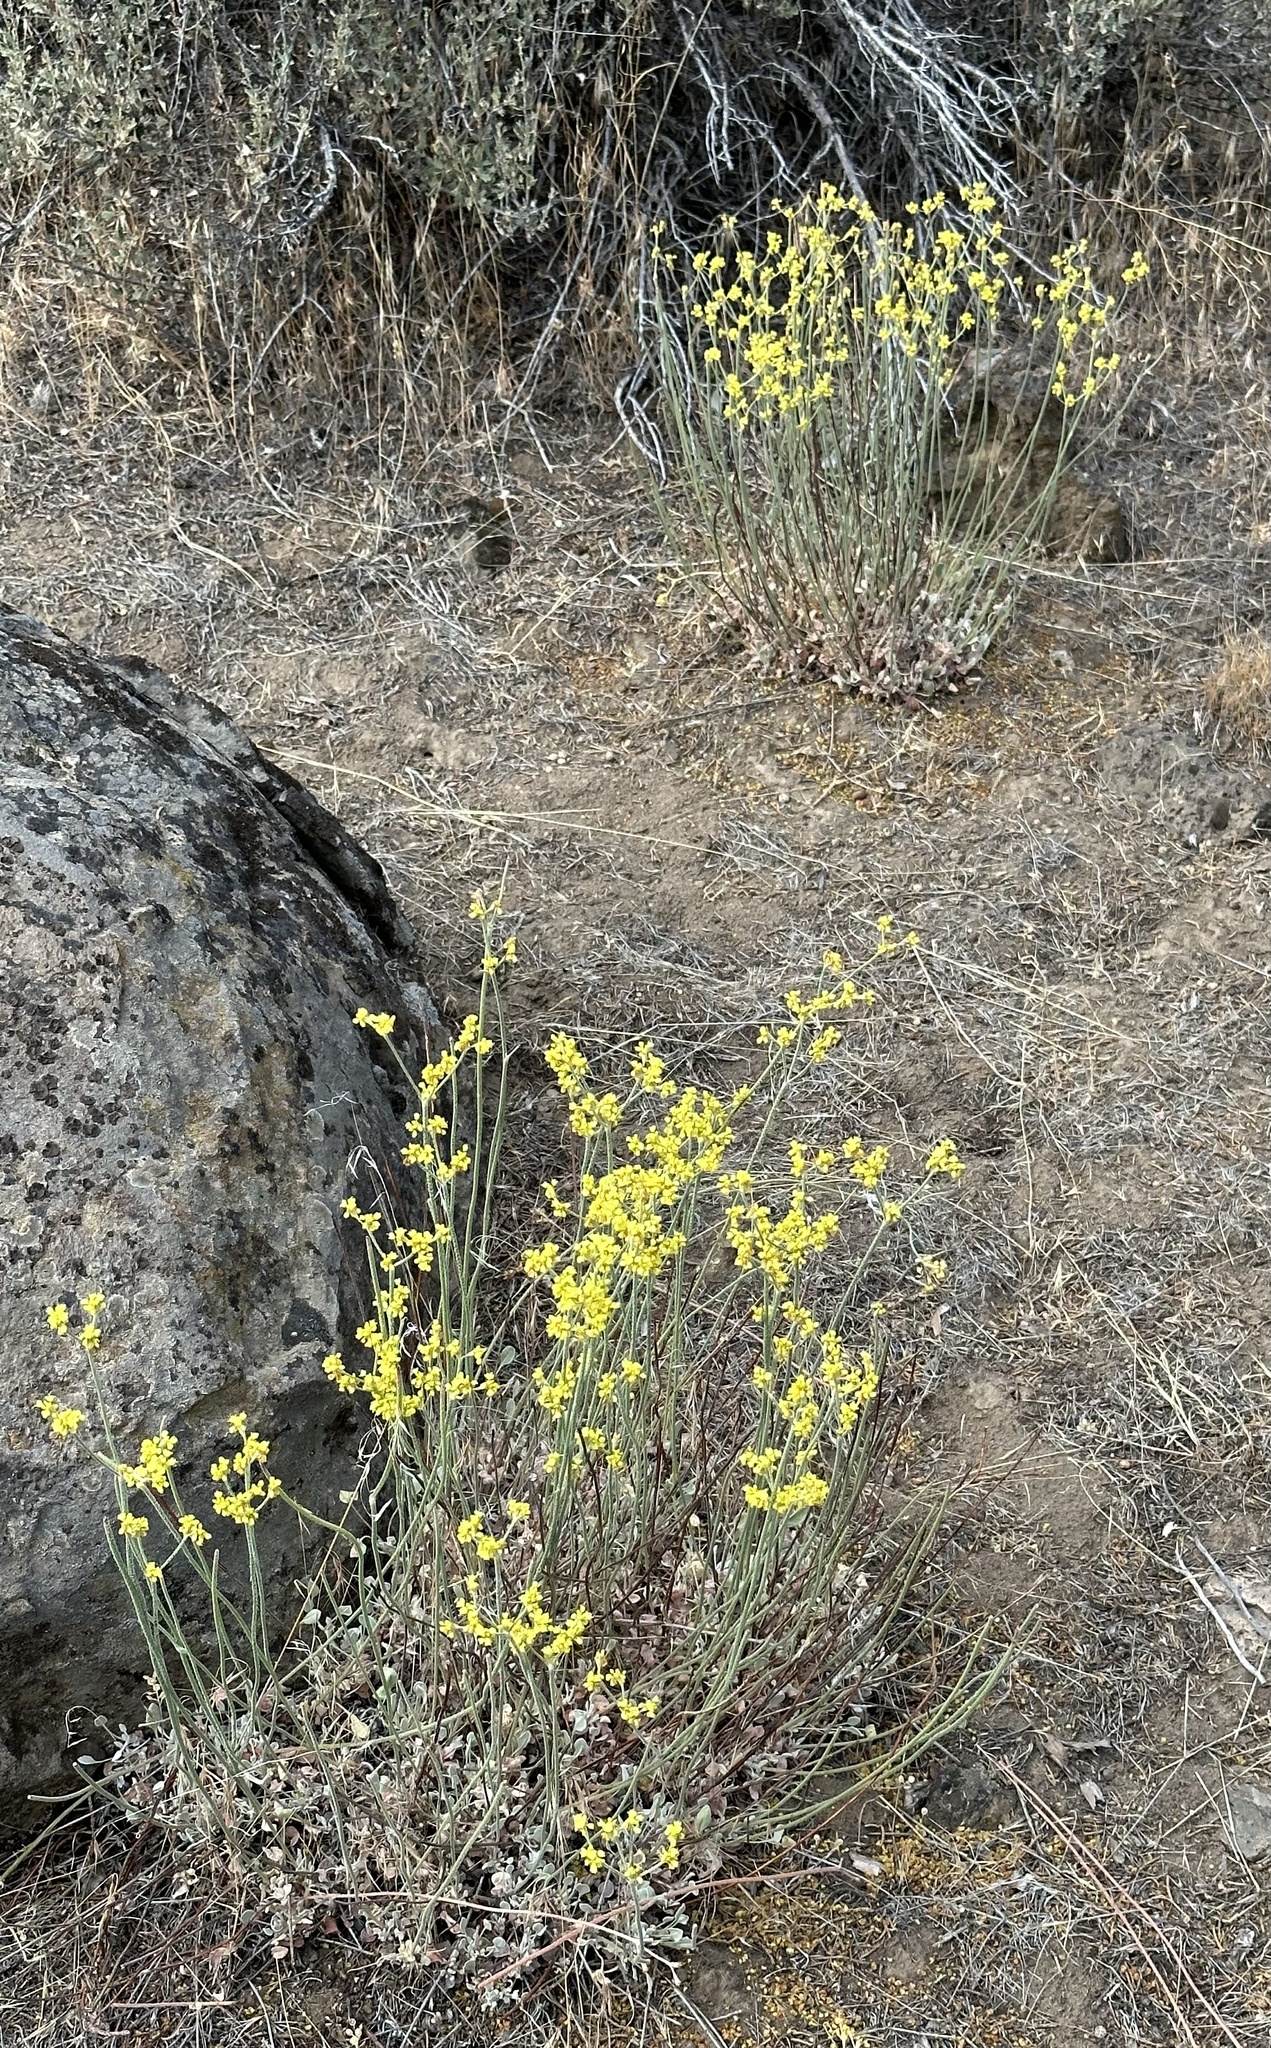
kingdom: Plantae
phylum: Tracheophyta
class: Magnoliopsida
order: Caryophyllales
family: Polygonaceae
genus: Eriogonum
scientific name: Eriogonum strictum
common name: Blue mountain buckwheat
